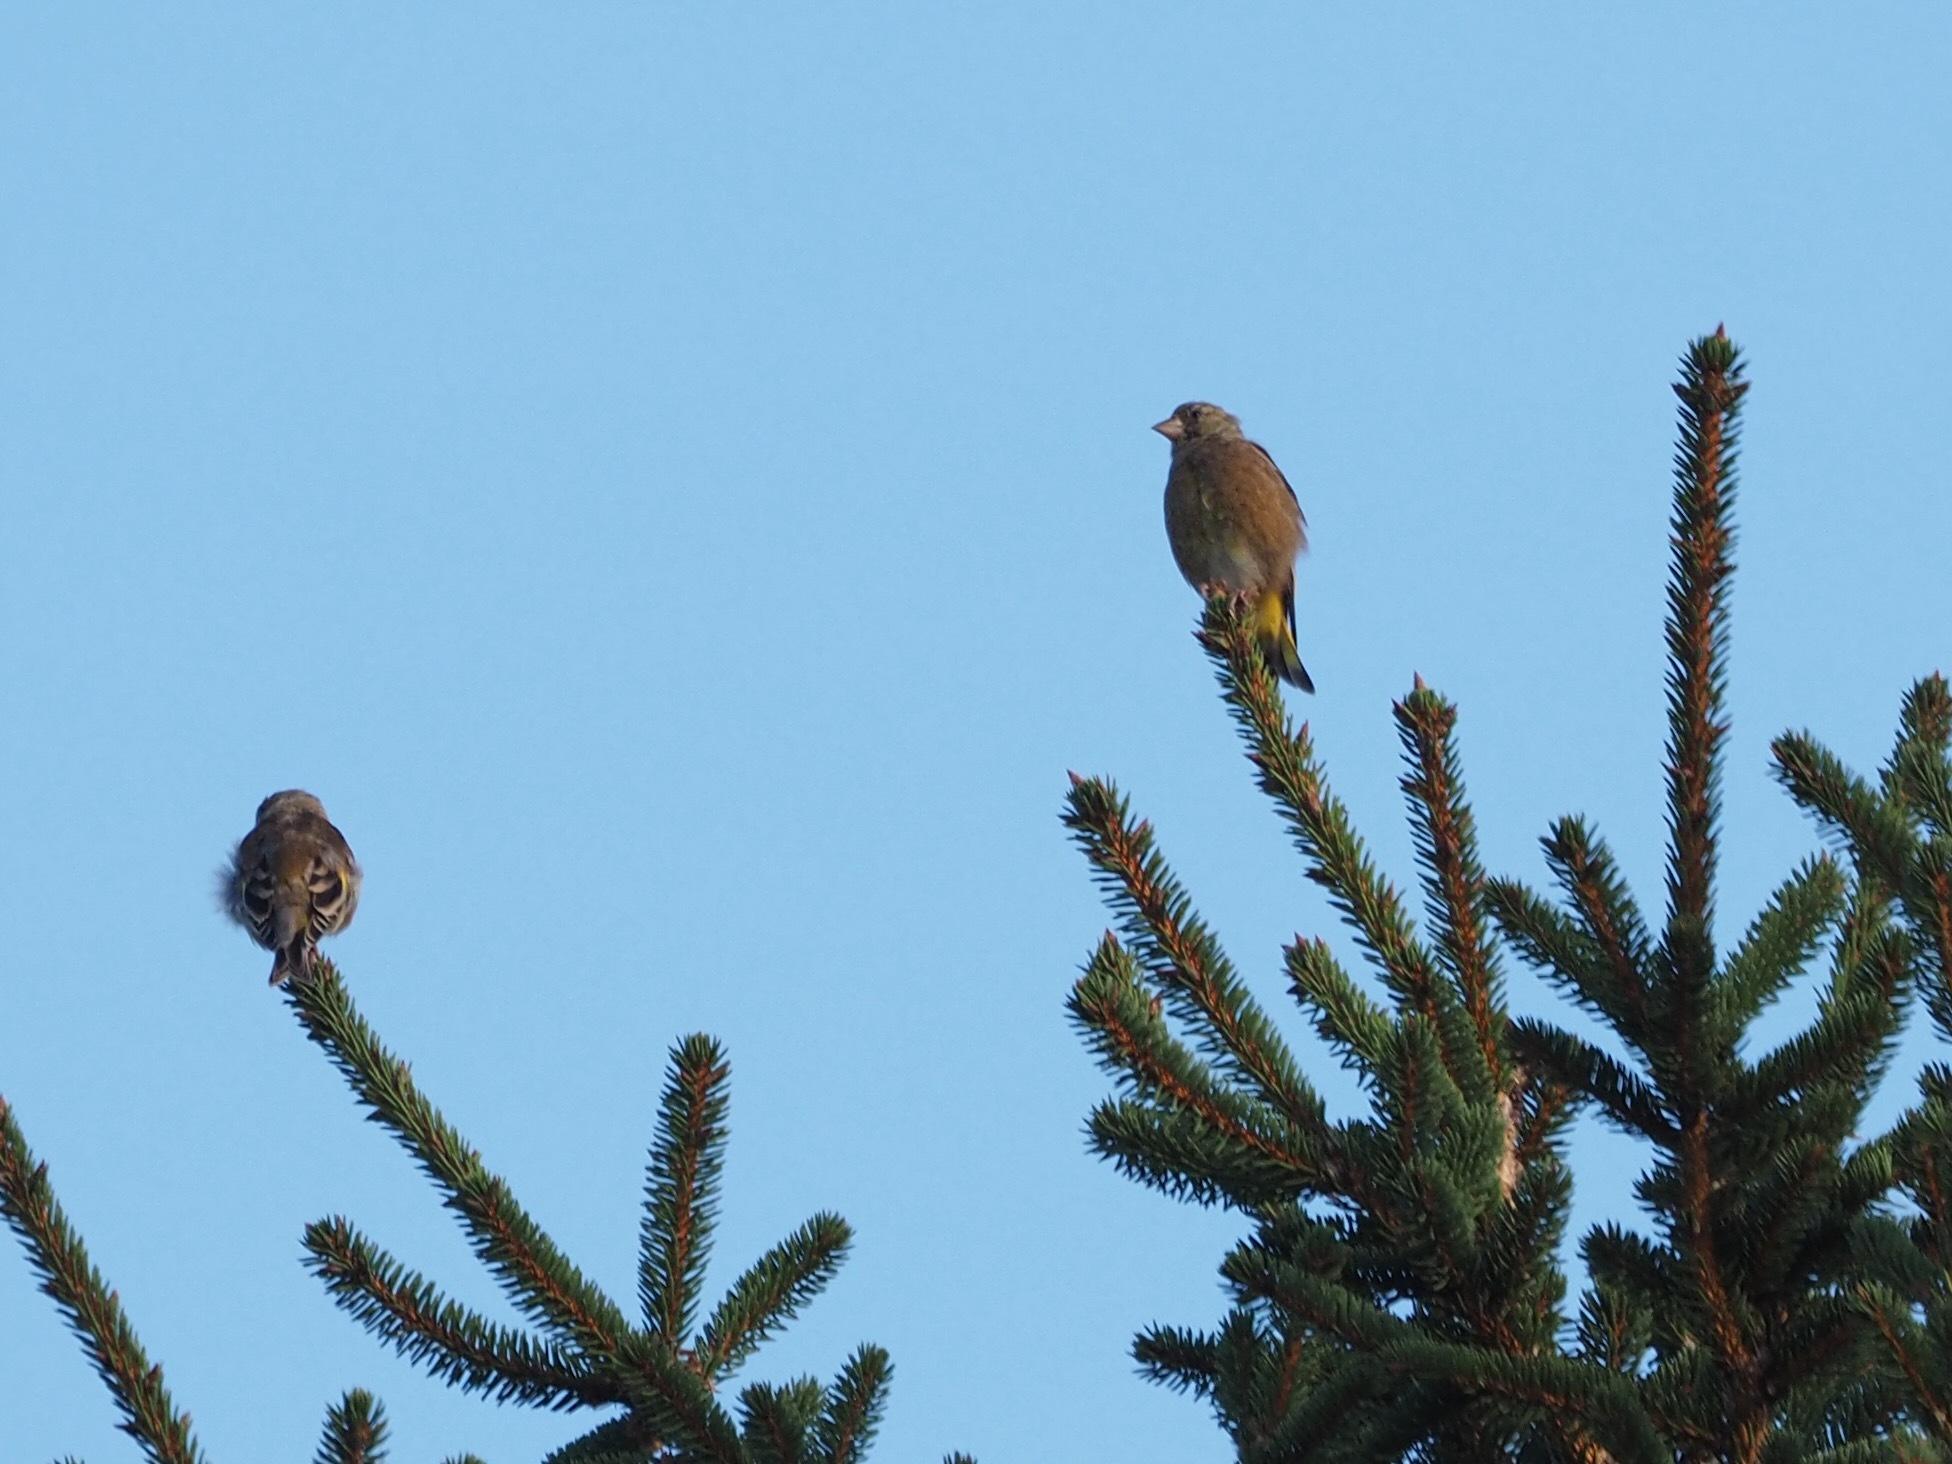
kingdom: Plantae
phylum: Tracheophyta
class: Liliopsida
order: Poales
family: Poaceae
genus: Chloris
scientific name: Chloris sinica
